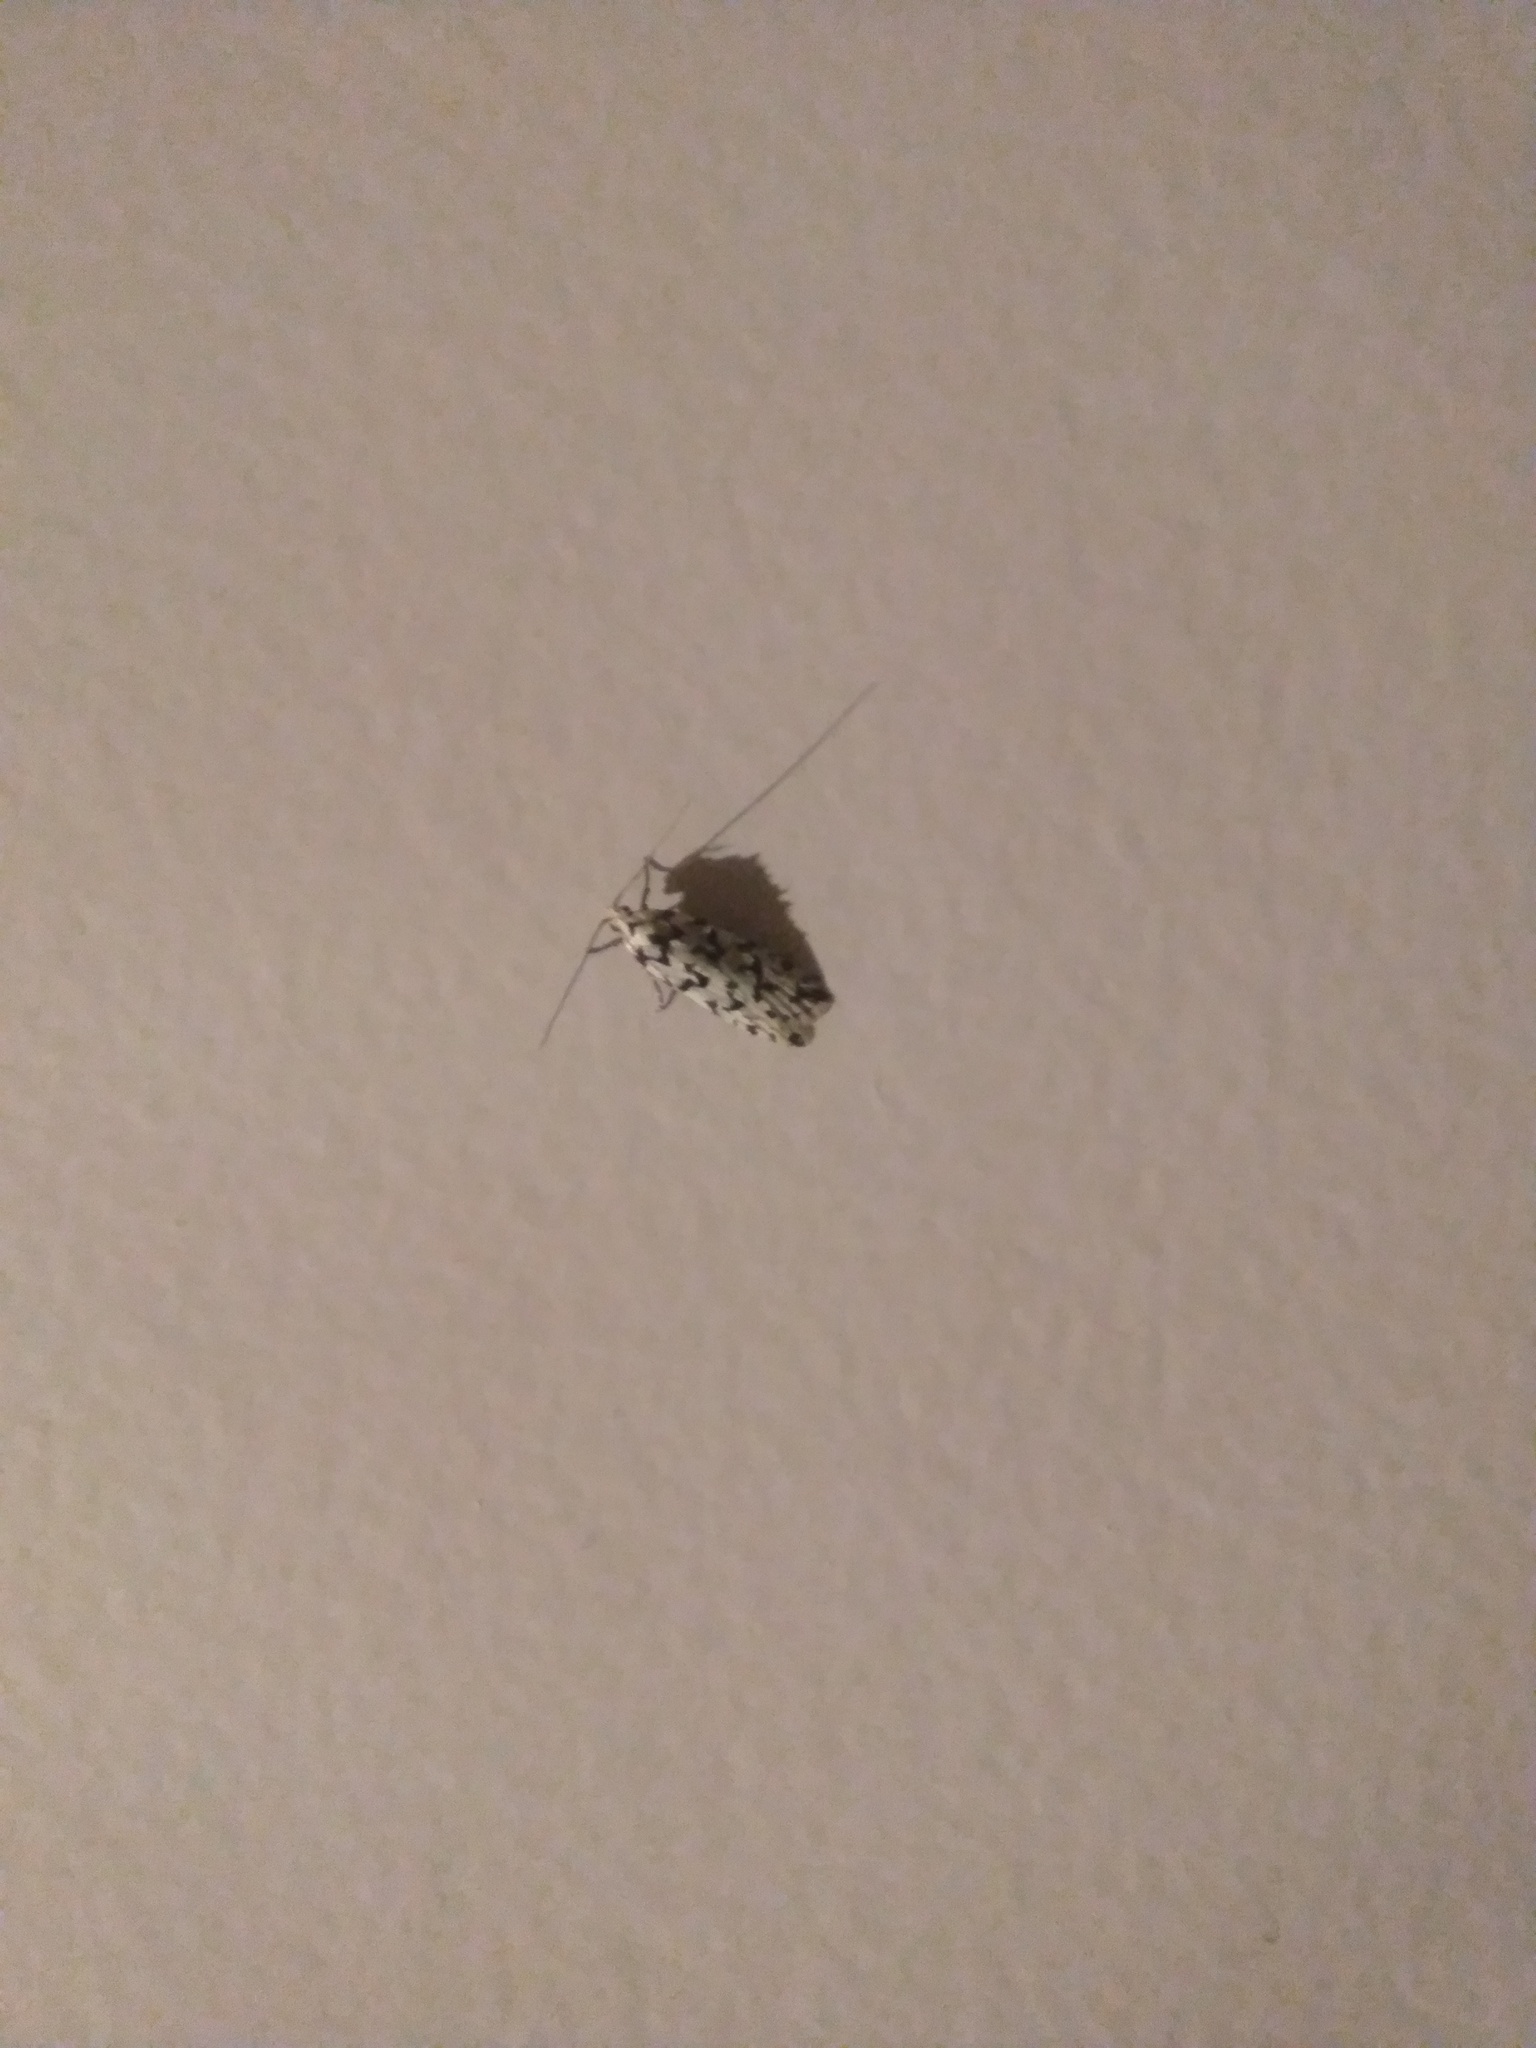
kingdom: Animalia
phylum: Arthropoda
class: Insecta
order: Lepidoptera
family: Oecophoridae
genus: Izatha
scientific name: Izatha katadiktya
